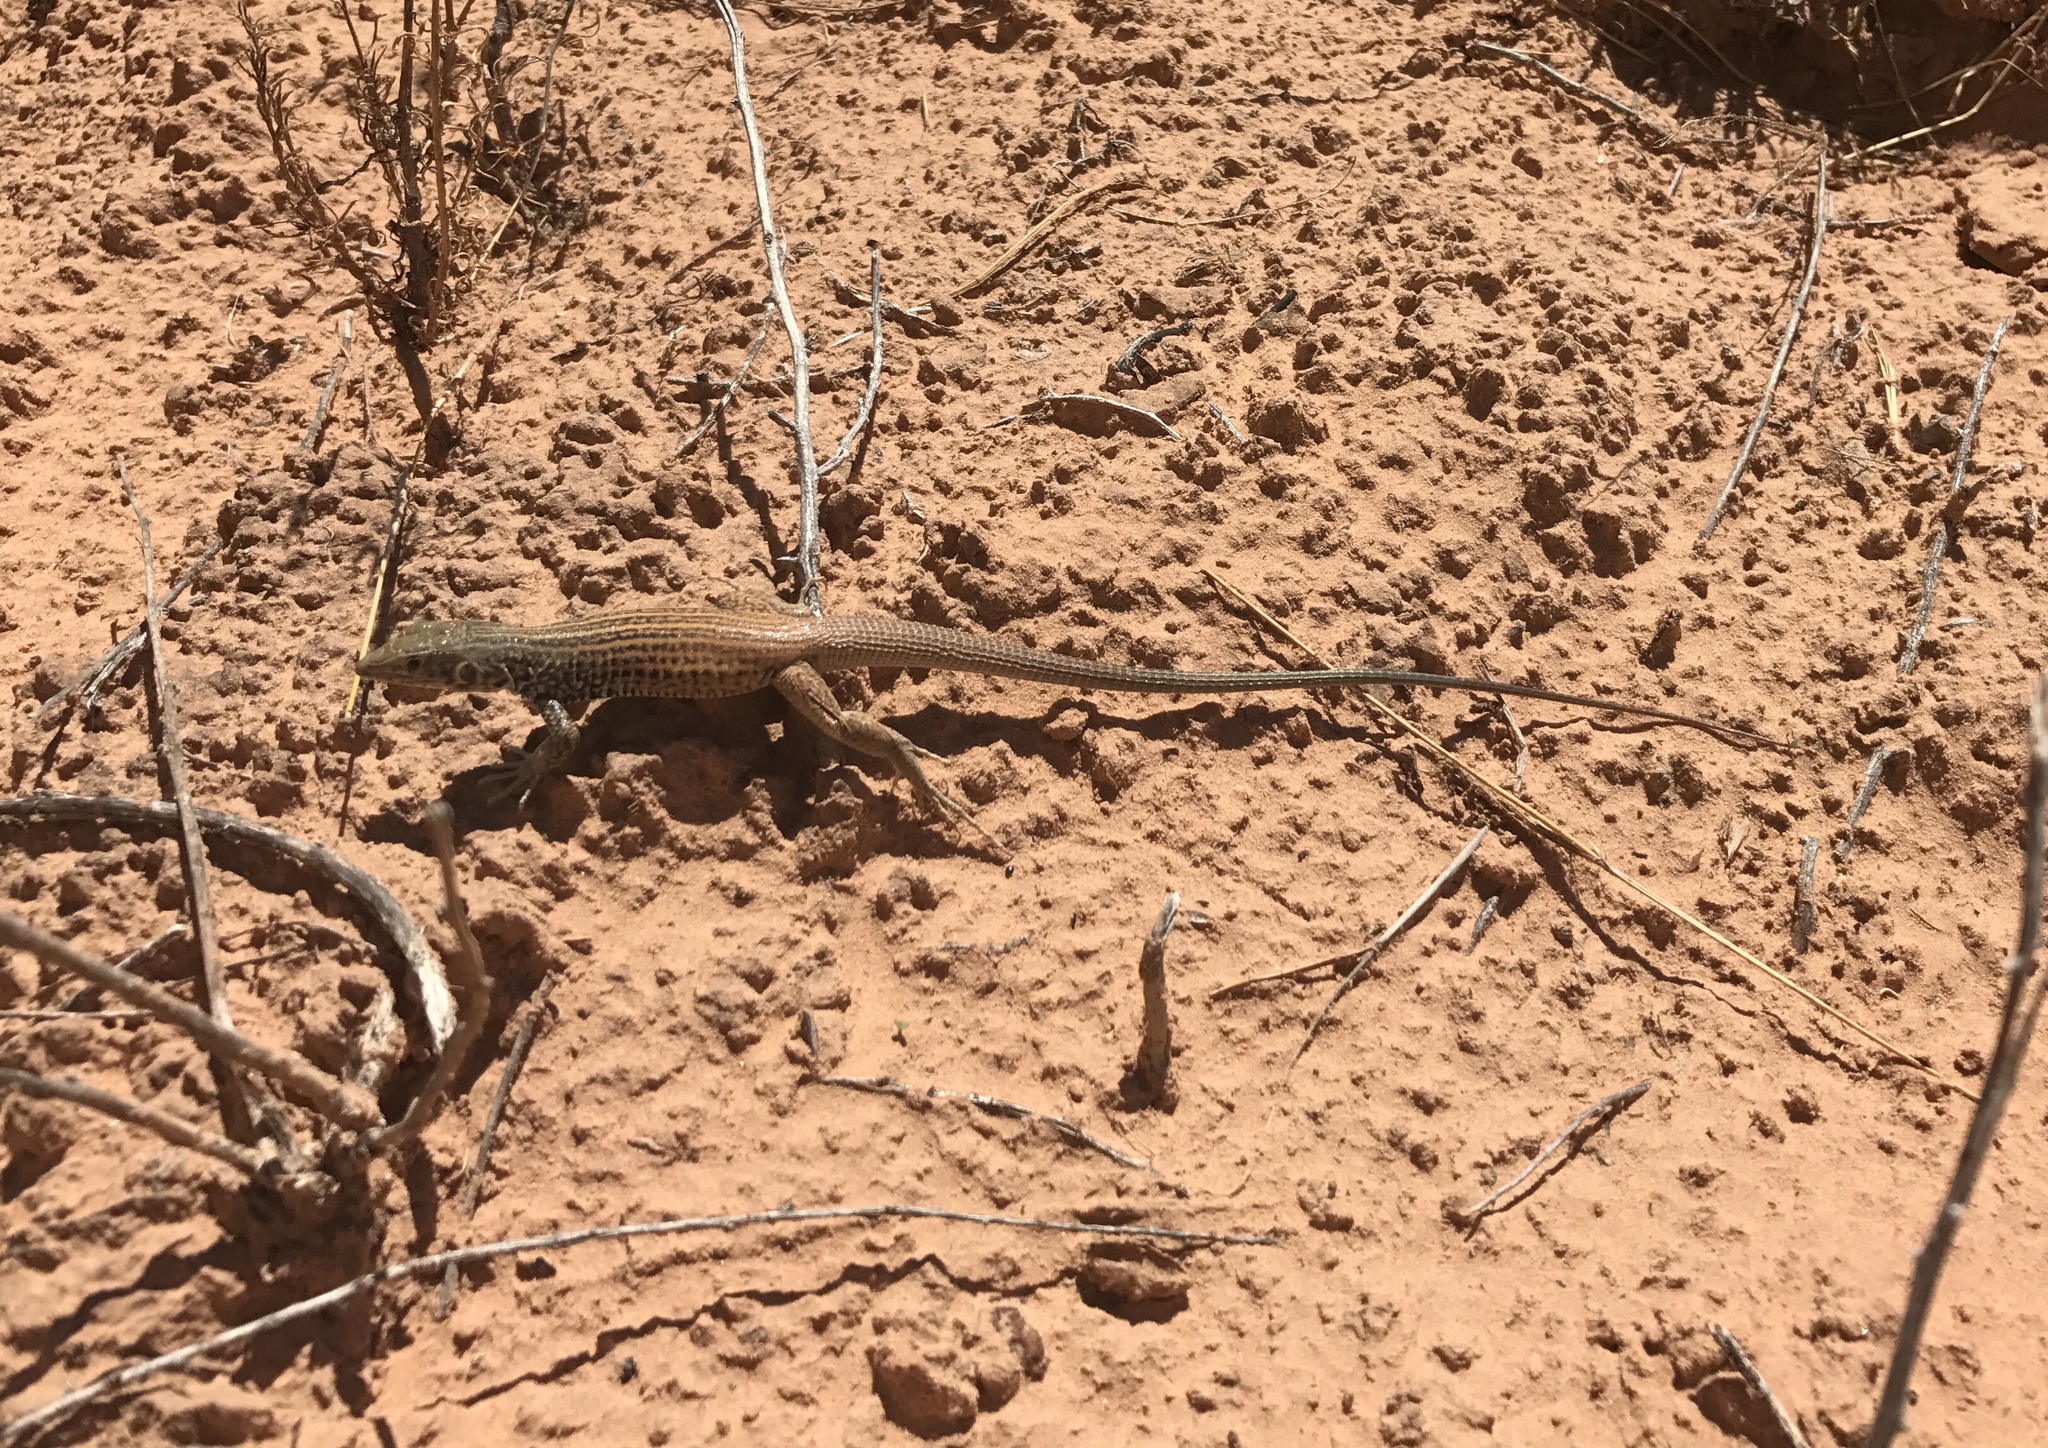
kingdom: Animalia
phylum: Chordata
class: Squamata
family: Teiidae
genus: Aspidoscelis
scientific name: Aspidoscelis tigris
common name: Tiger whiptail
